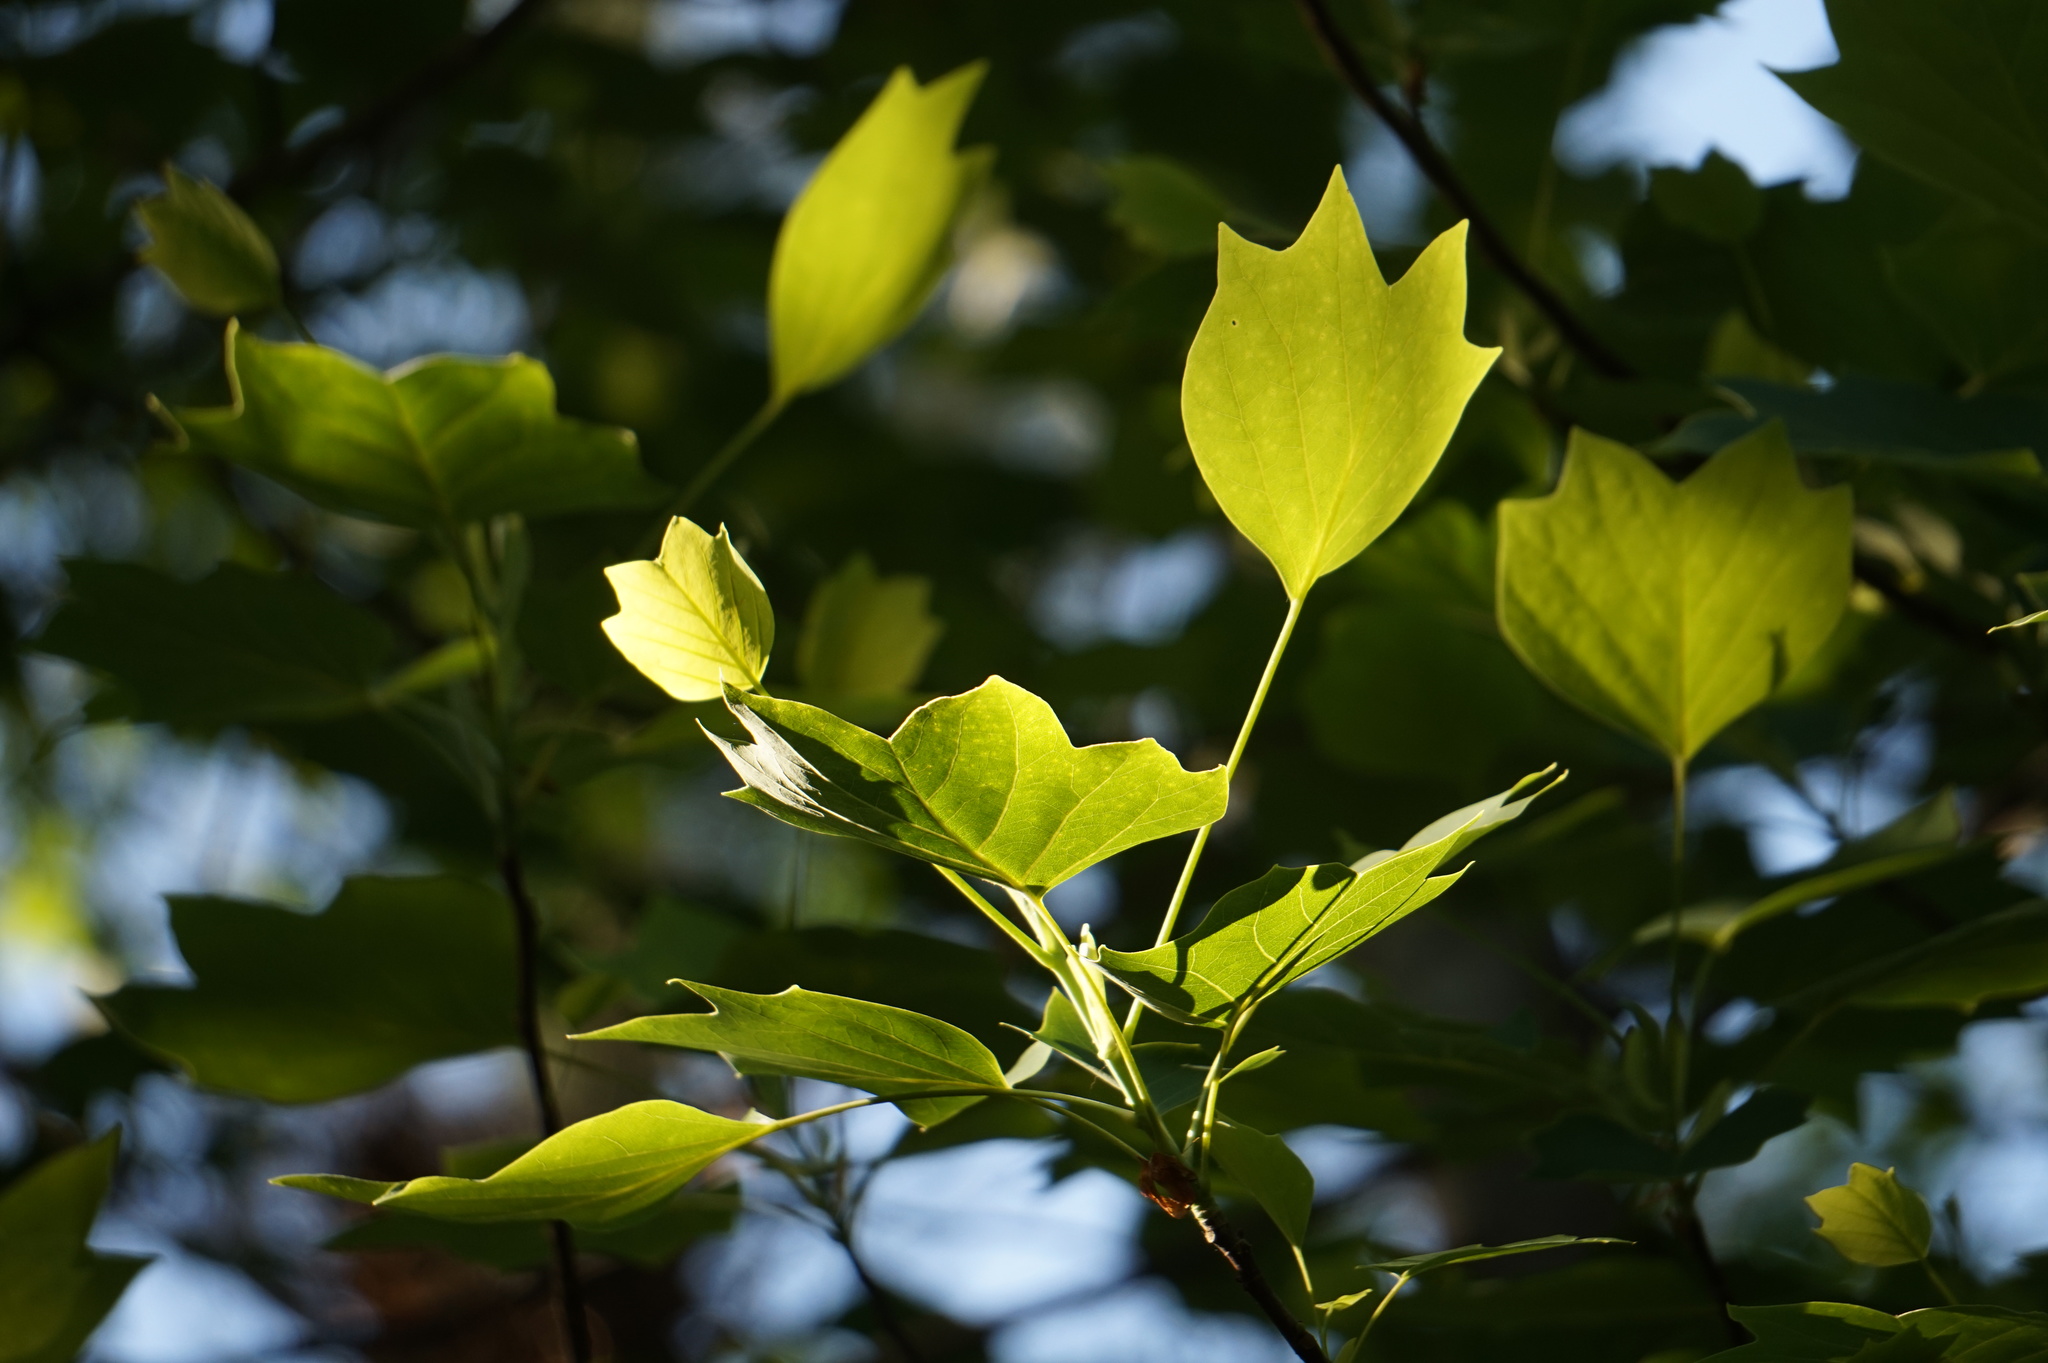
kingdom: Plantae
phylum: Tracheophyta
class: Magnoliopsida
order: Magnoliales
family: Magnoliaceae
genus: Liriodendron
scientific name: Liriodendron tulipifera
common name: Tulip tree
